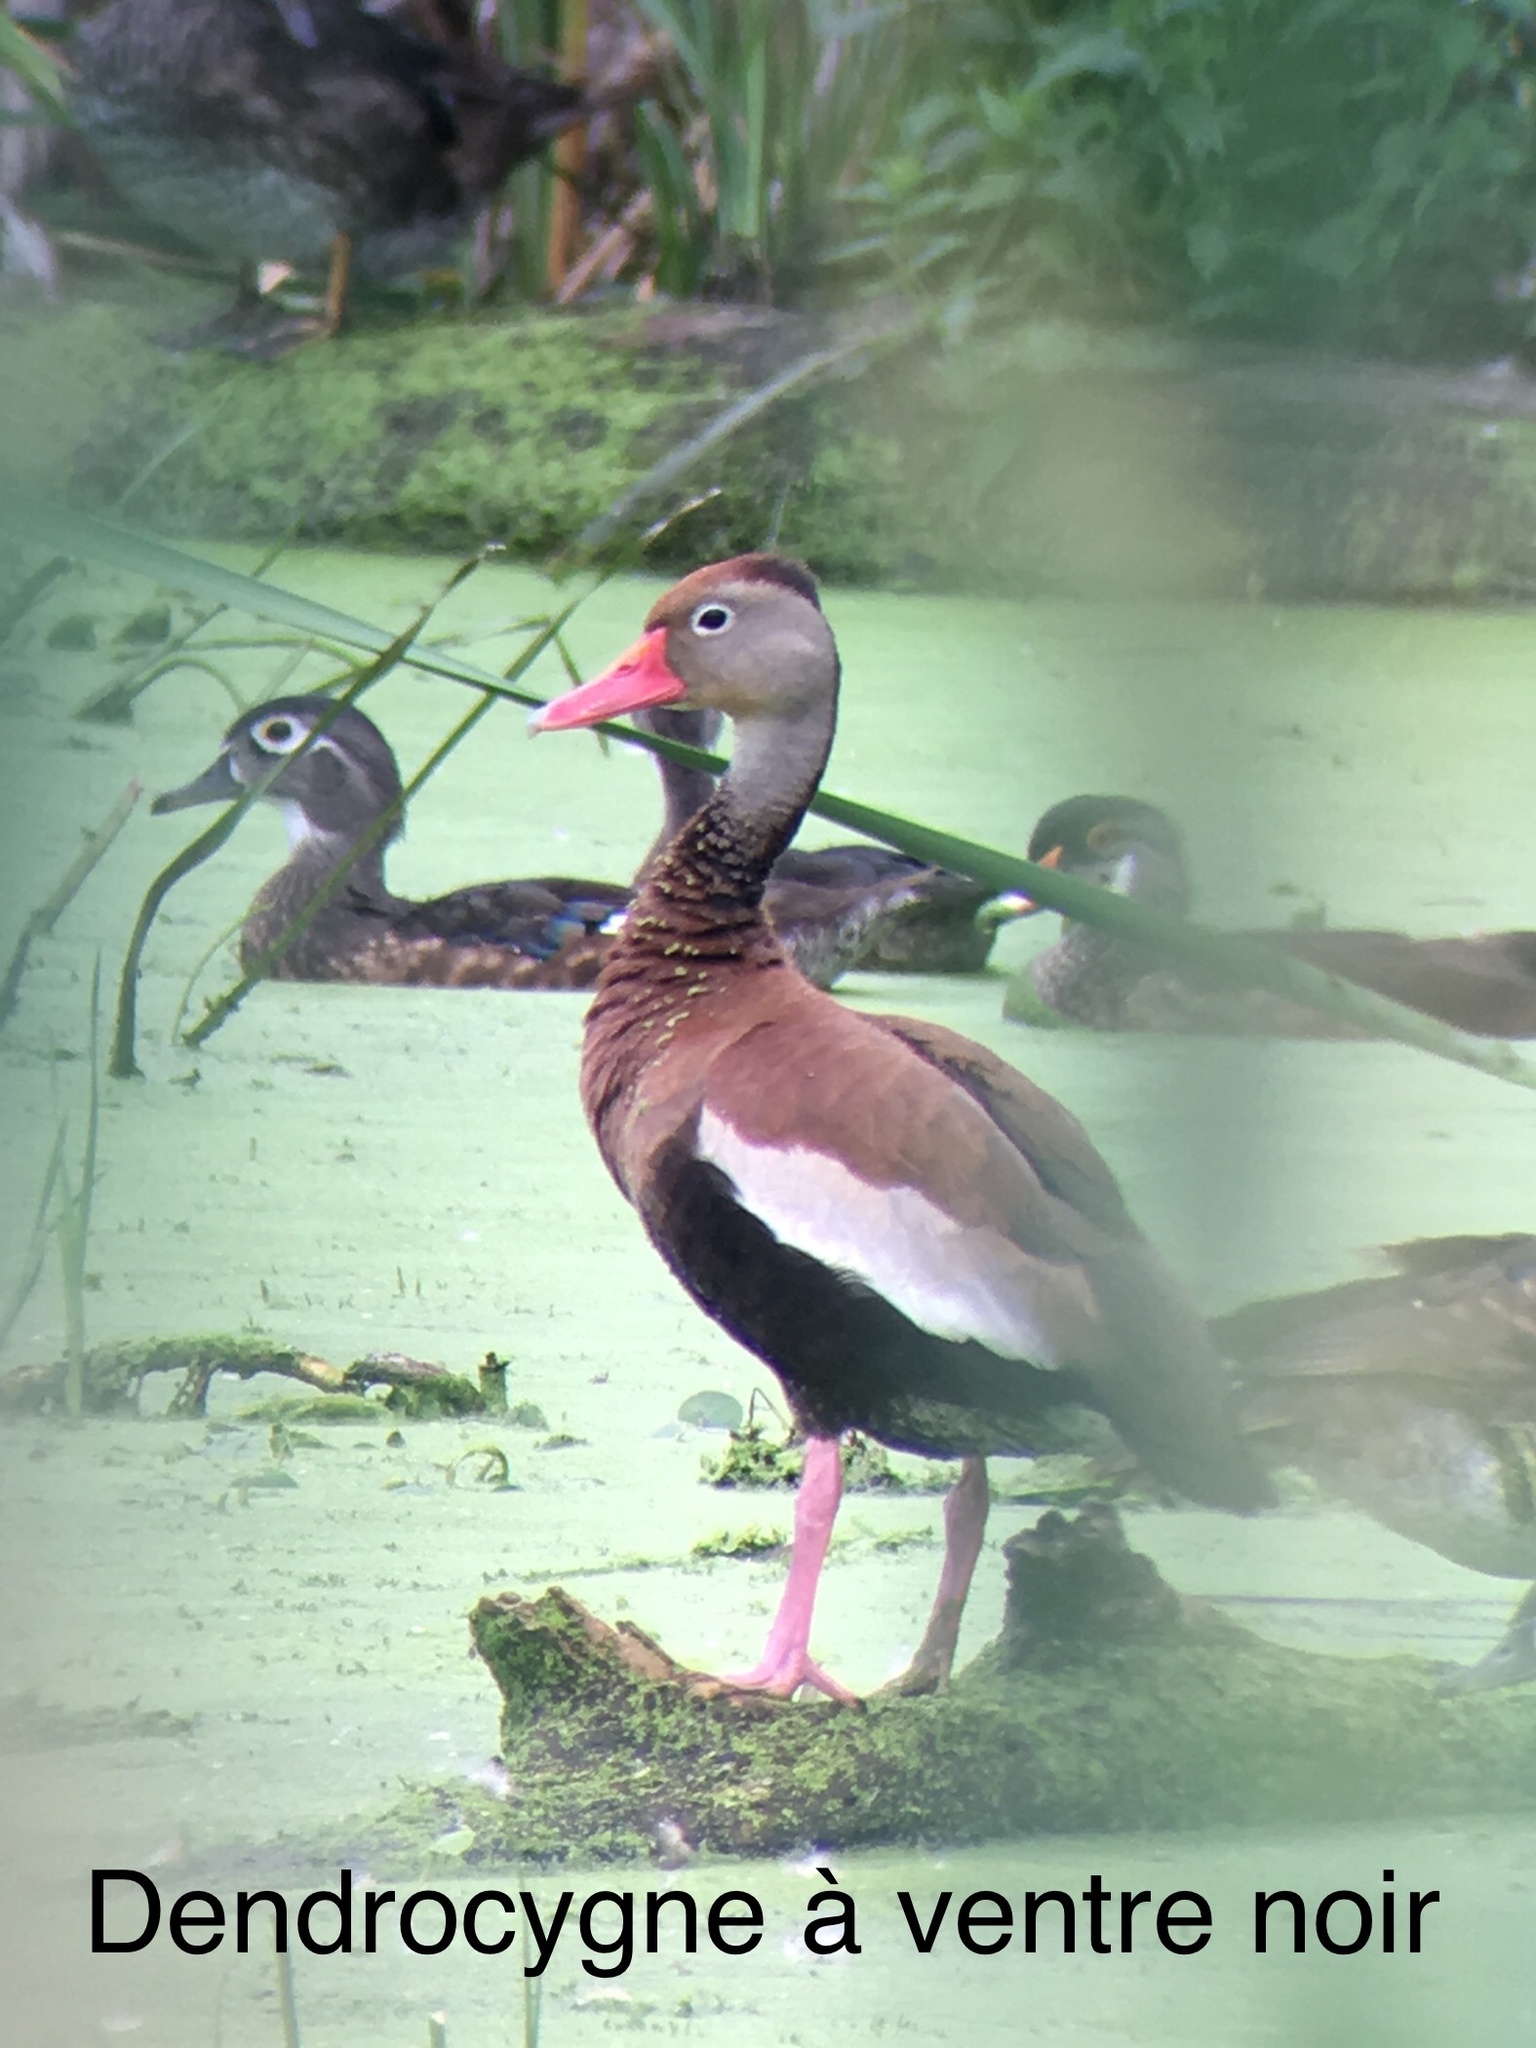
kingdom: Animalia
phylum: Chordata
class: Aves
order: Anseriformes
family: Anatidae
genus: Dendrocygna
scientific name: Dendrocygna autumnalis
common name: Black-bellied whistling duck
